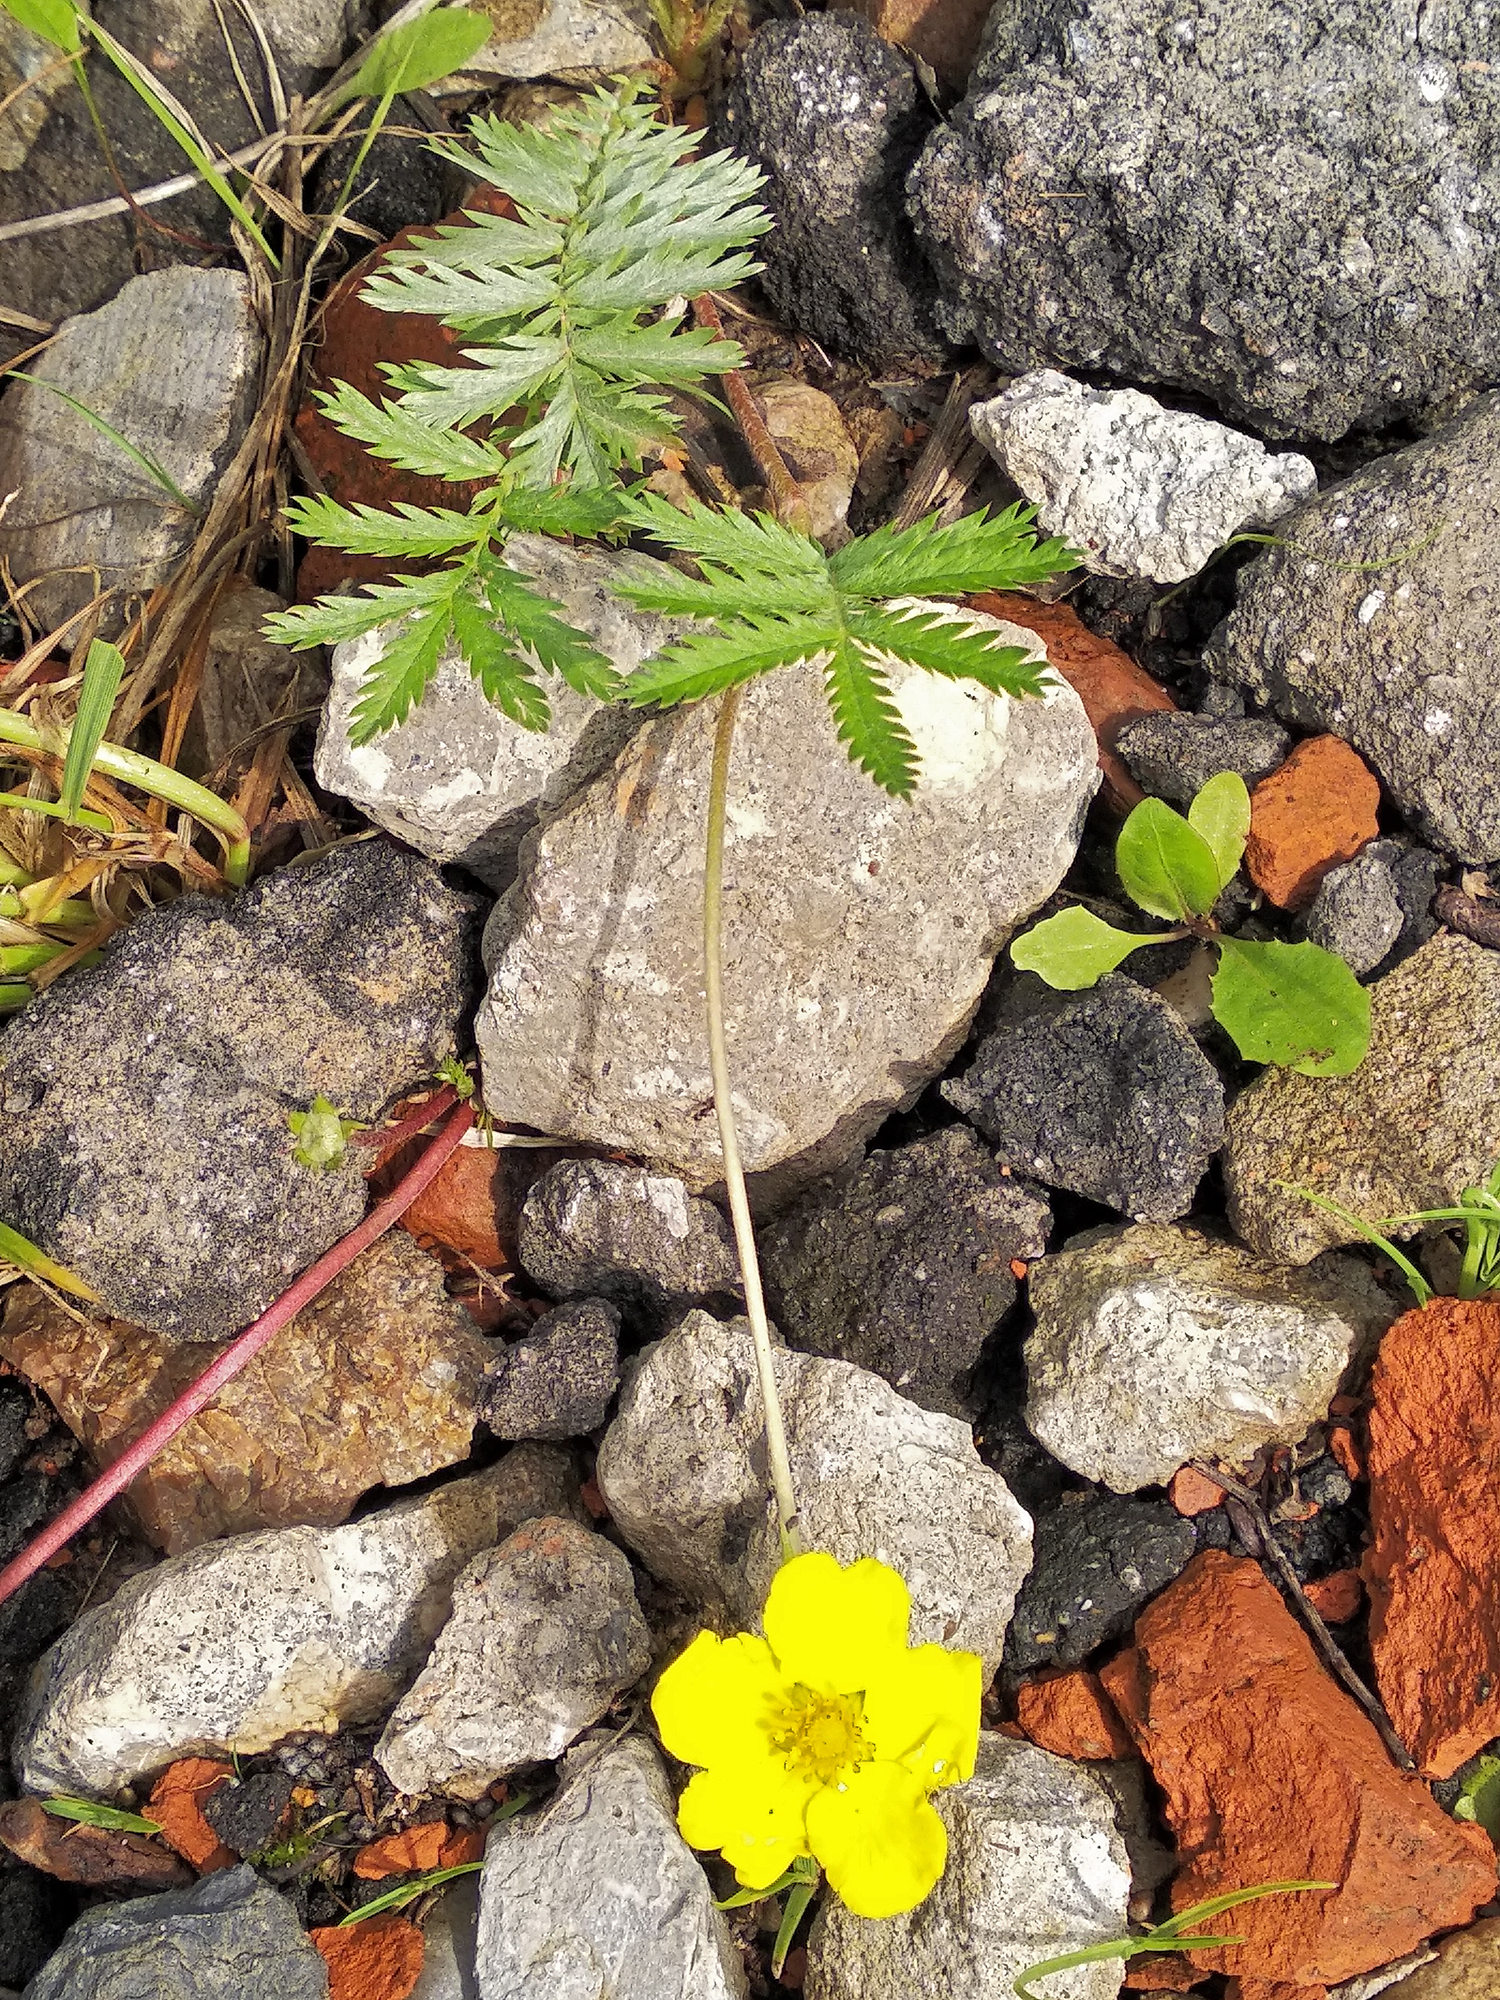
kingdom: Plantae
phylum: Tracheophyta
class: Magnoliopsida
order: Rosales
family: Rosaceae
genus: Argentina
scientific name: Argentina anserina
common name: Common silverweed
